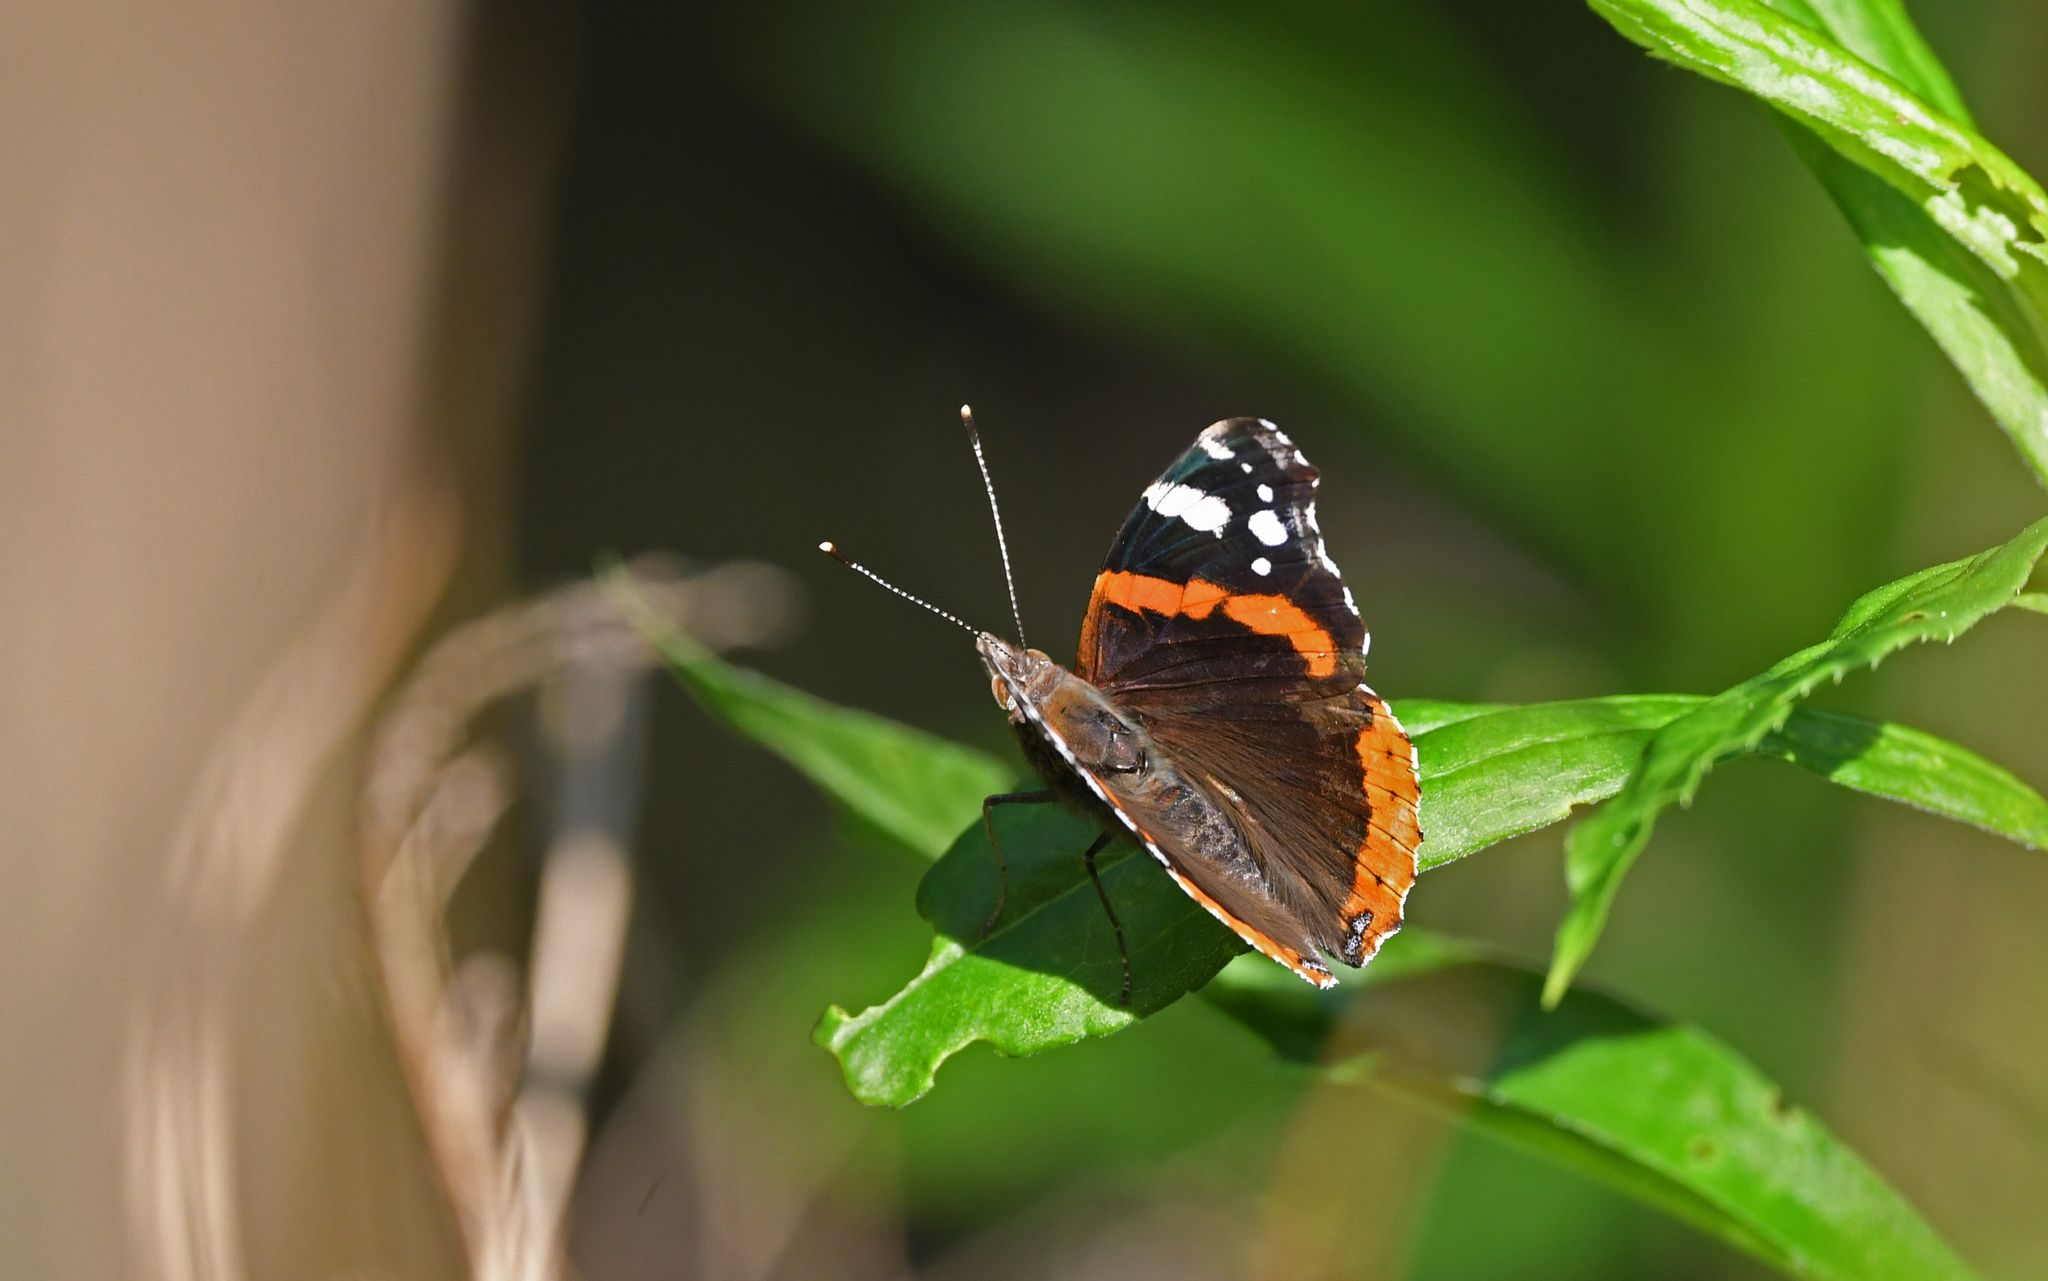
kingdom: Animalia
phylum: Arthropoda
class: Insecta
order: Lepidoptera
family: Nymphalidae
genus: Vanessa
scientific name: Vanessa atalanta
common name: Red admiral
